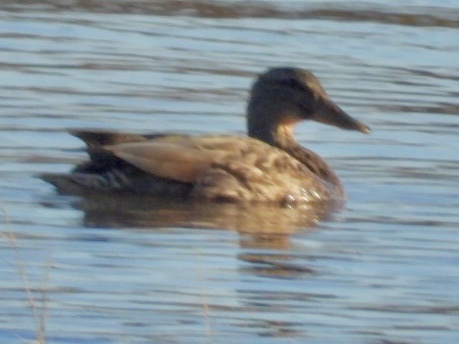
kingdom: Animalia
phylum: Chordata
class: Aves
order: Anseriformes
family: Anatidae
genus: Anas
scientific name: Anas platyrhynchos
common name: Mallard
